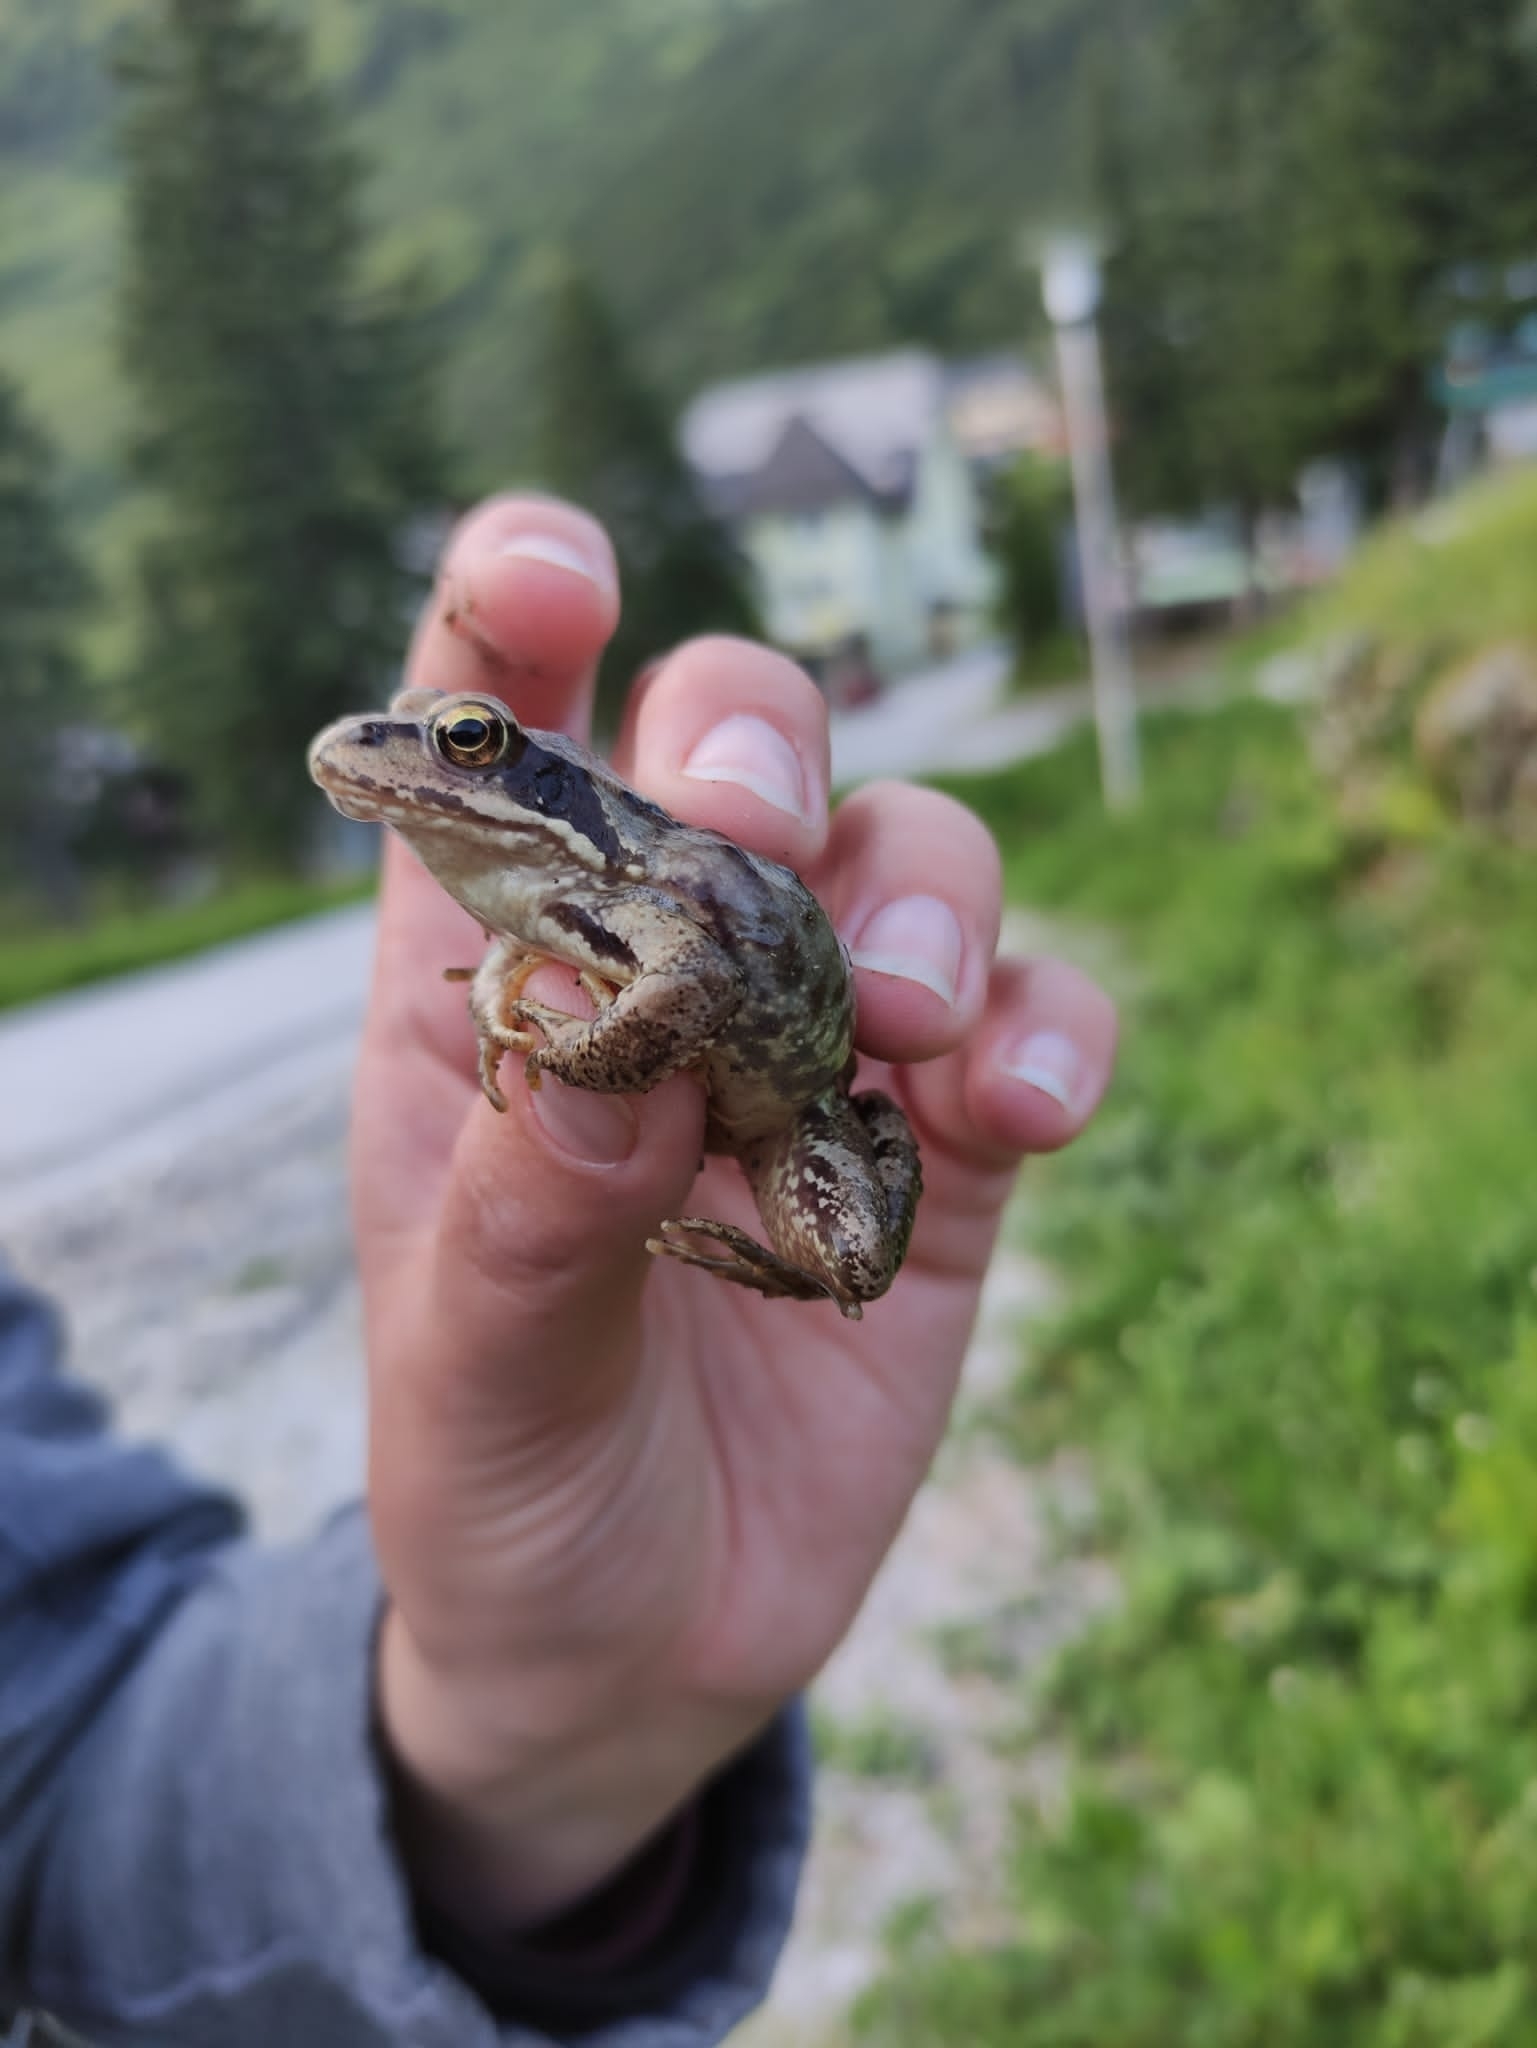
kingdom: Animalia
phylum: Chordata
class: Amphibia
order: Anura
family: Ranidae
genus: Rana
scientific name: Rana temporaria
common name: Common frog
